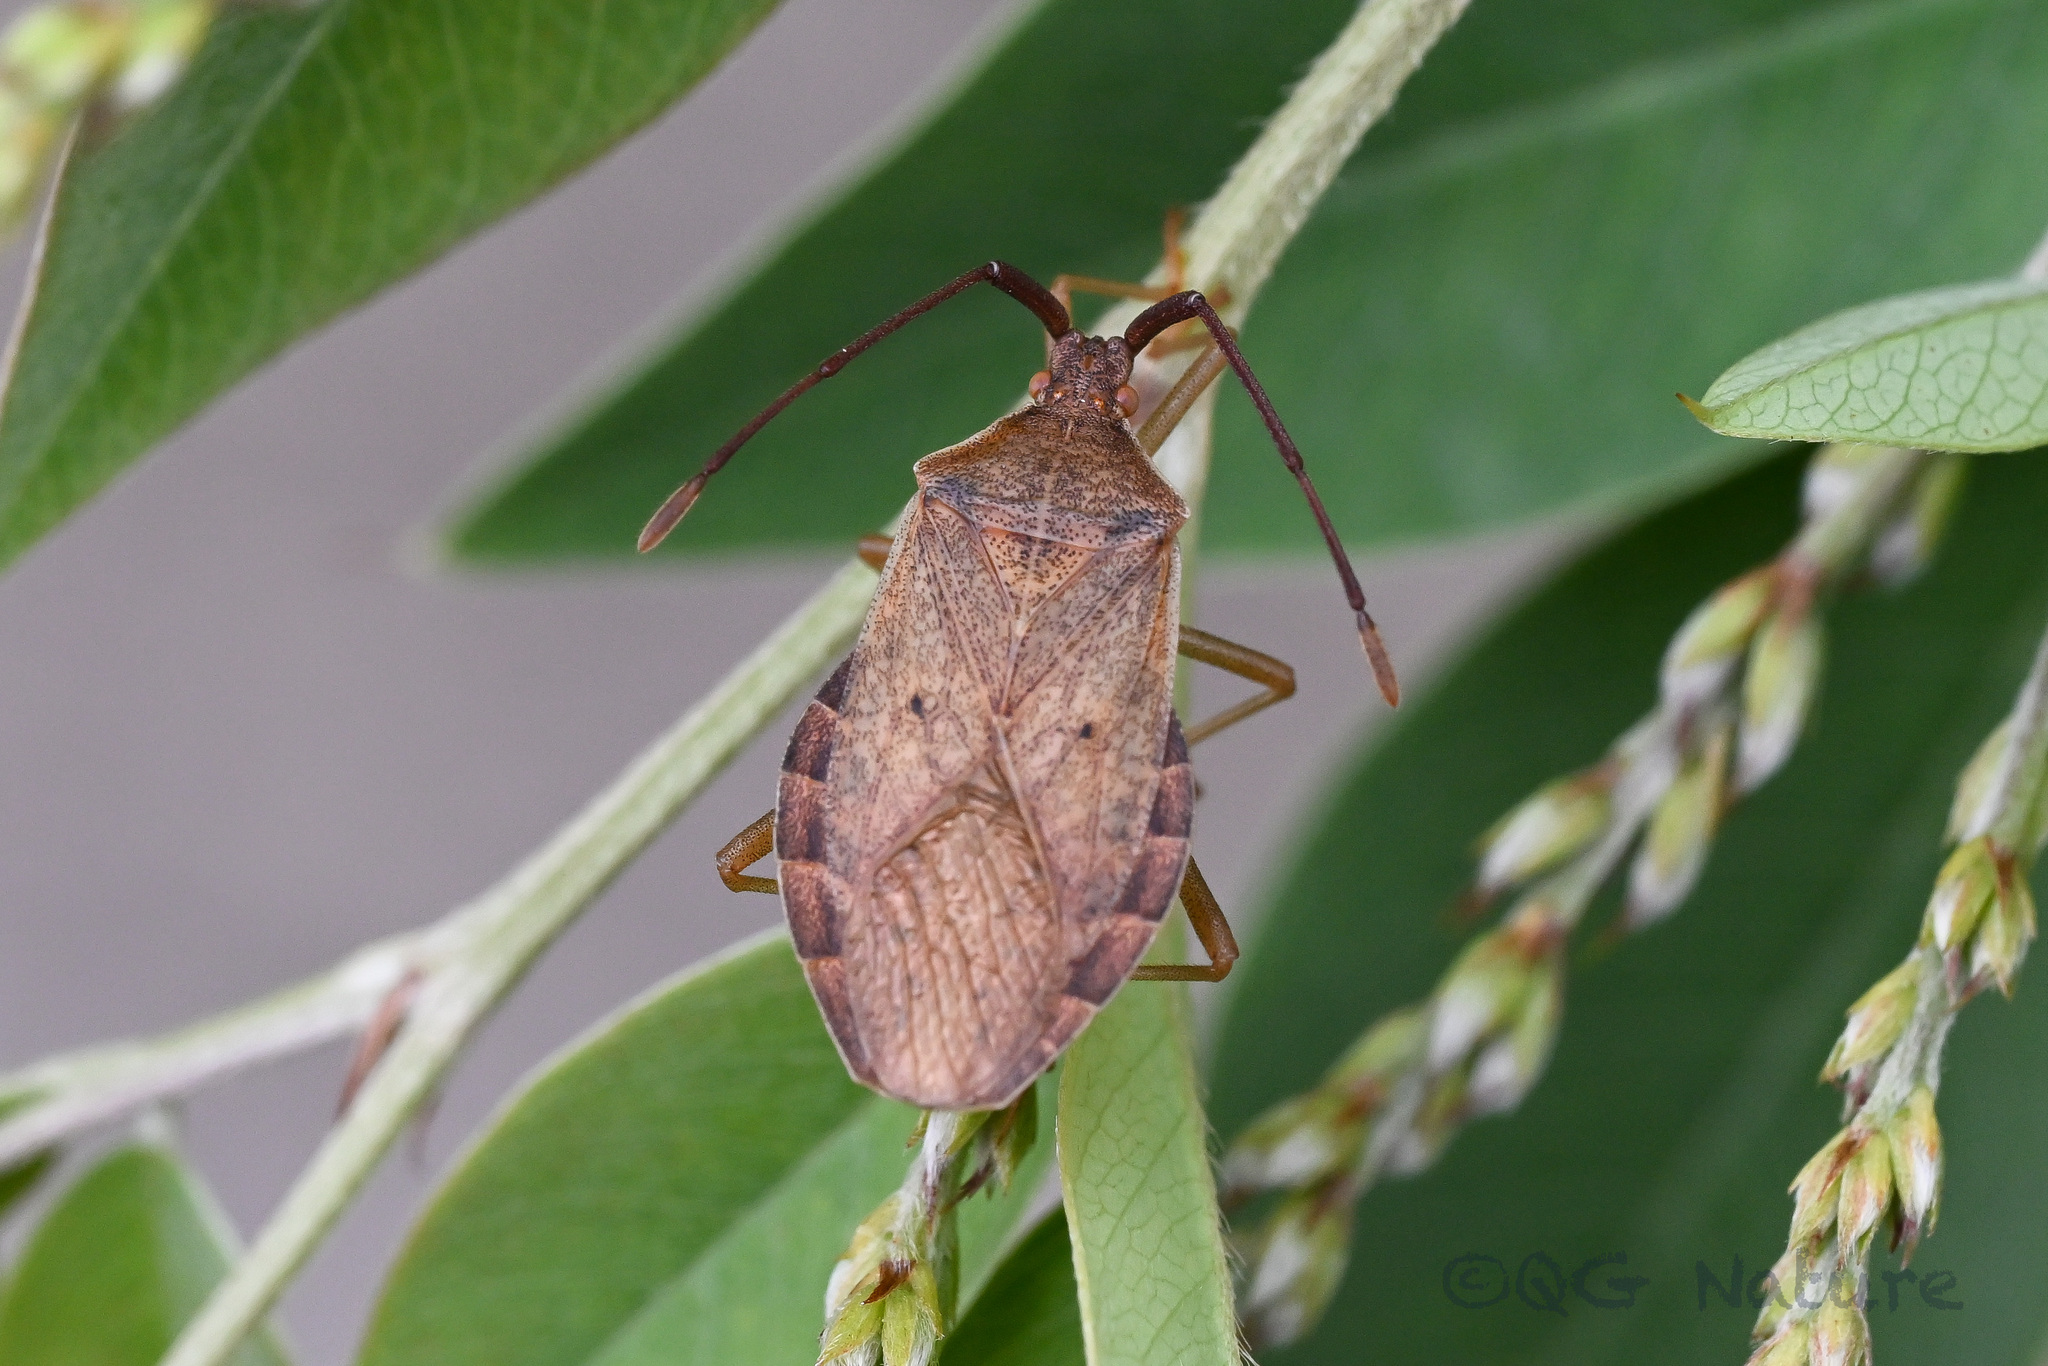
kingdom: Animalia
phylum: Arthropoda
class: Insecta
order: Hemiptera
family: Coreidae
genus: Homoeocerus
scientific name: Homoeocerus dilatatus
